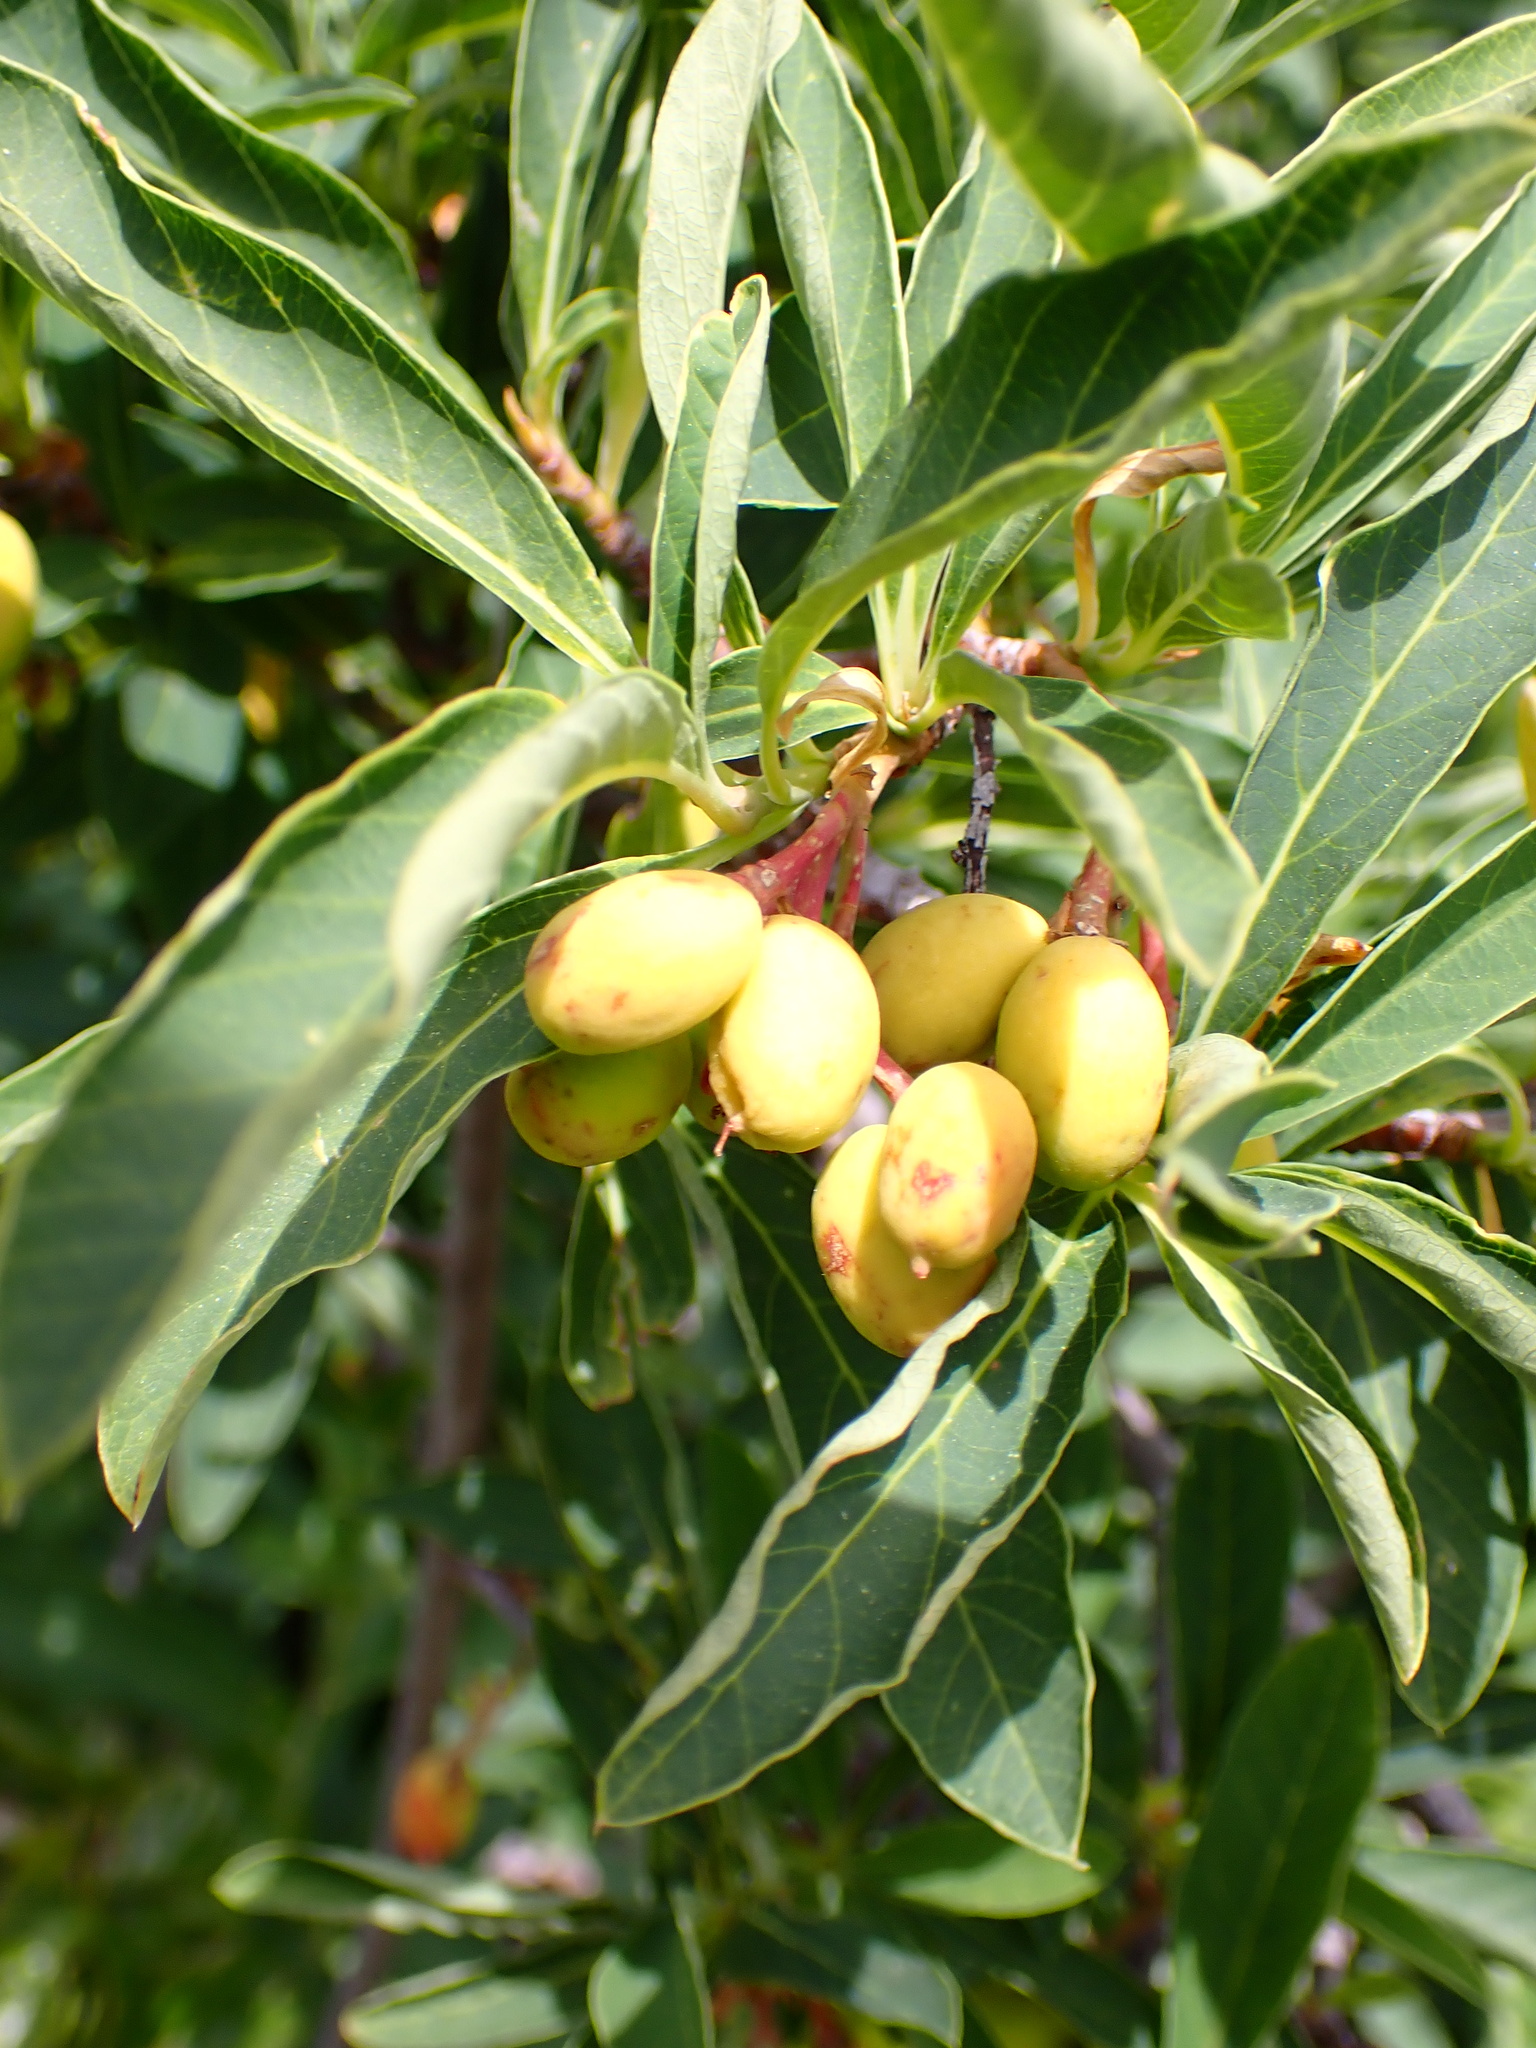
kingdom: Plantae
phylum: Tracheophyta
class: Magnoliopsida
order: Rosales
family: Rosaceae
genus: Oemleria
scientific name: Oemleria cerasiformis
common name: Osoberry
